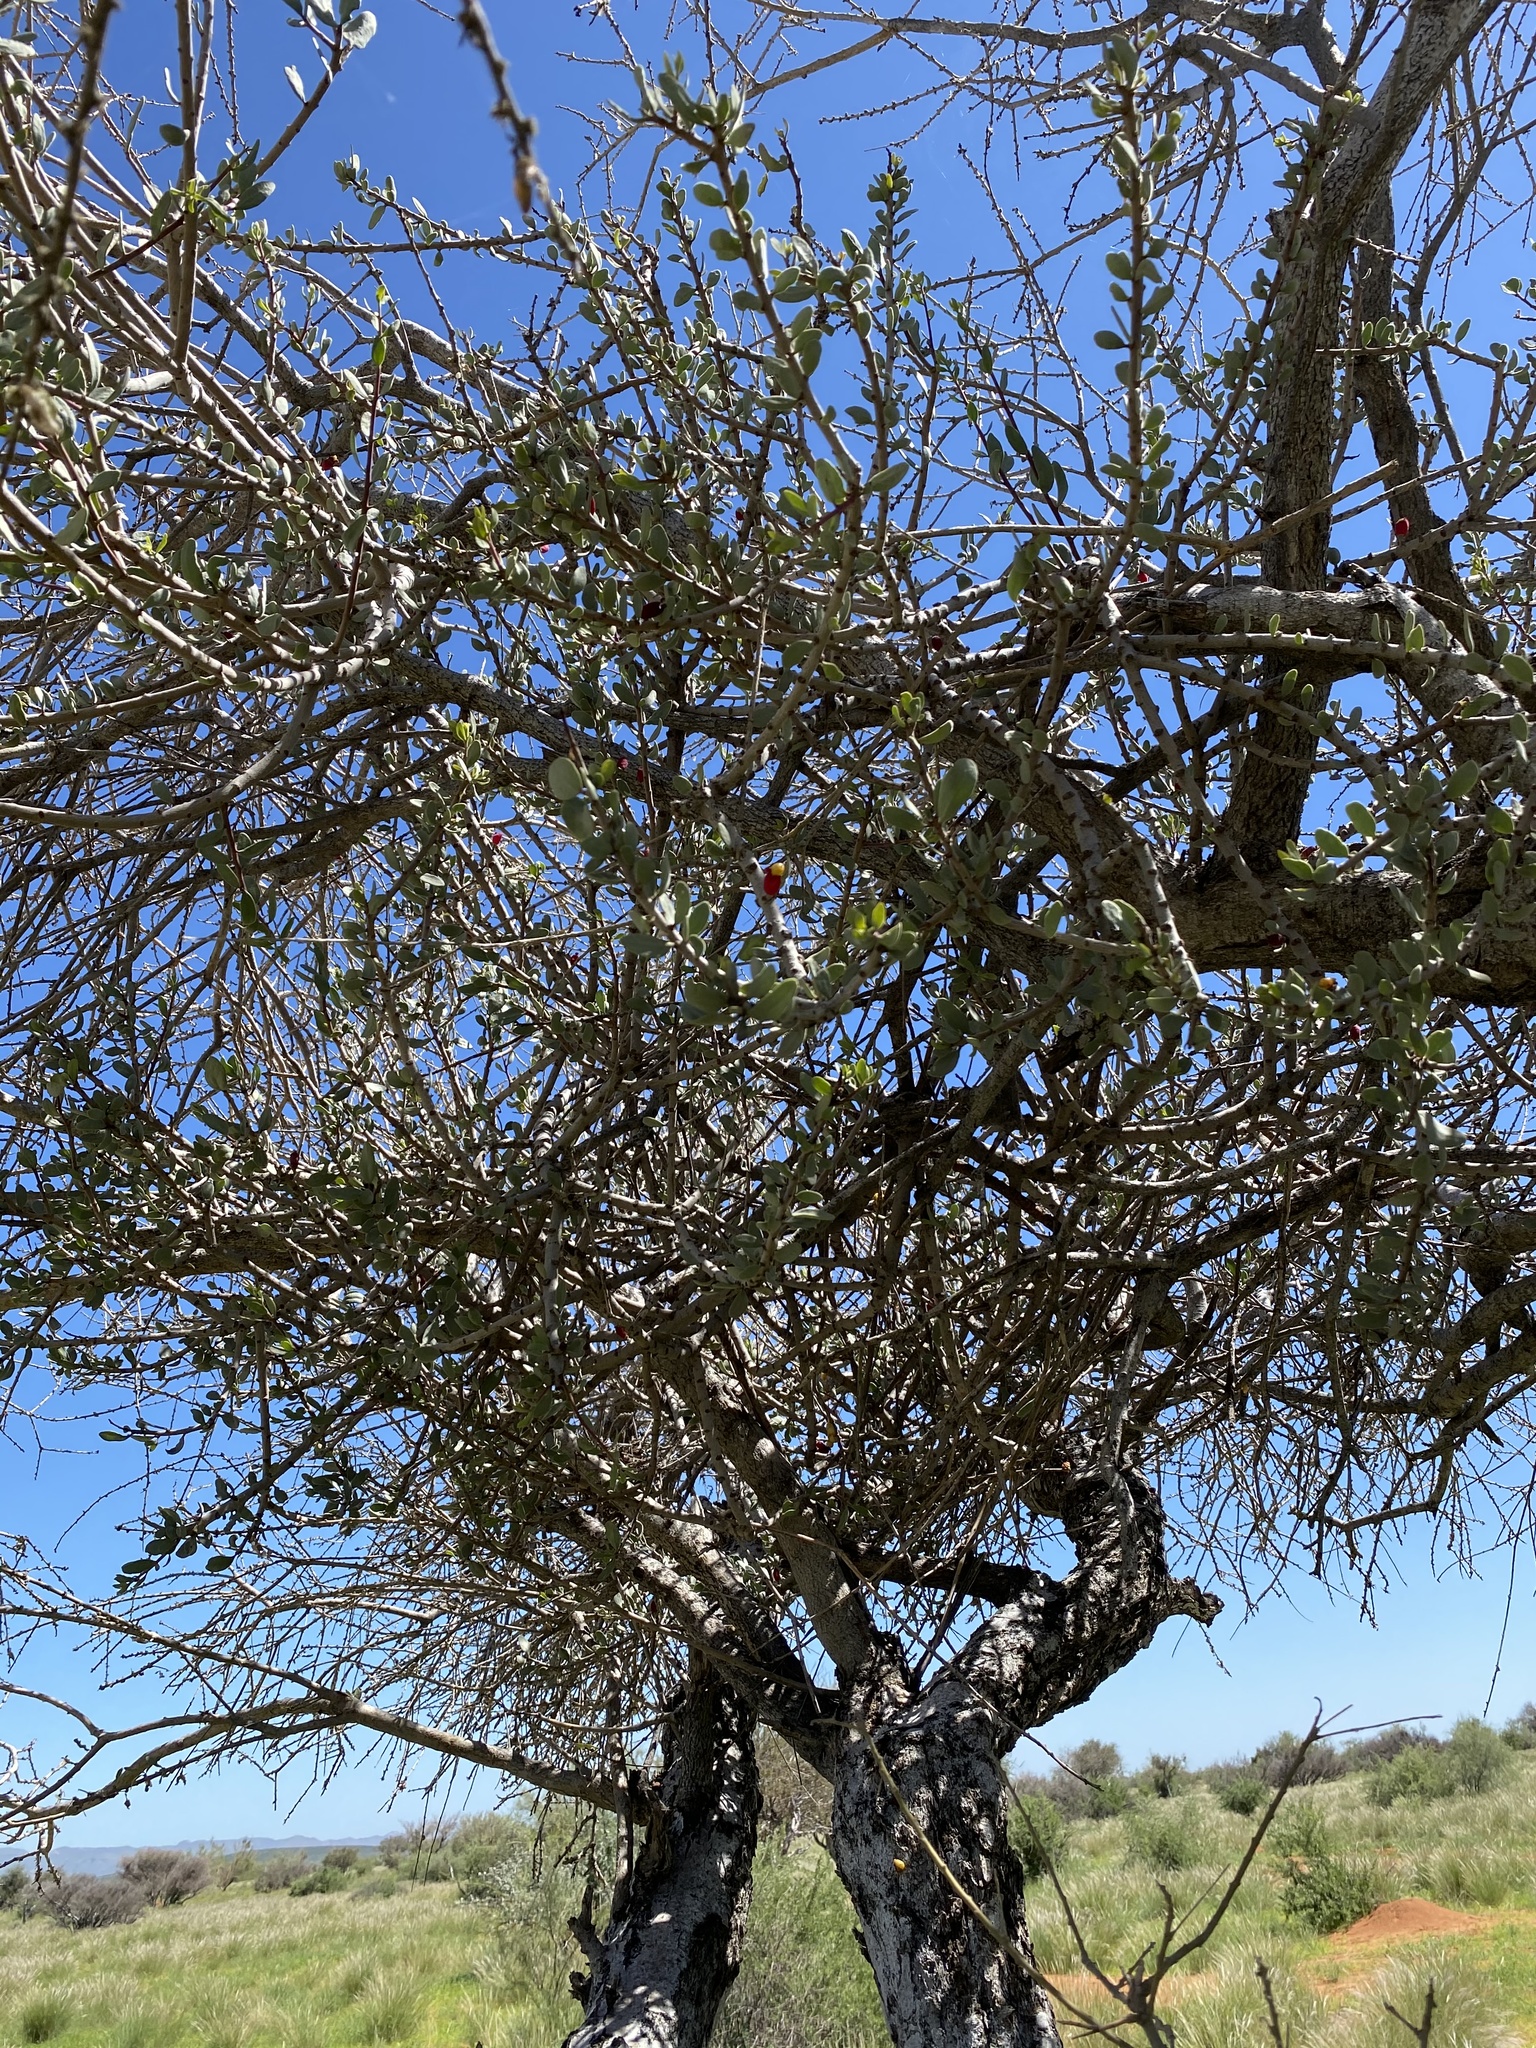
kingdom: Plantae
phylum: Tracheophyta
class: Magnoliopsida
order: Santalales
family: Loranthaceae
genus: Tapinanthus
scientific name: Tapinanthus oleifolius
